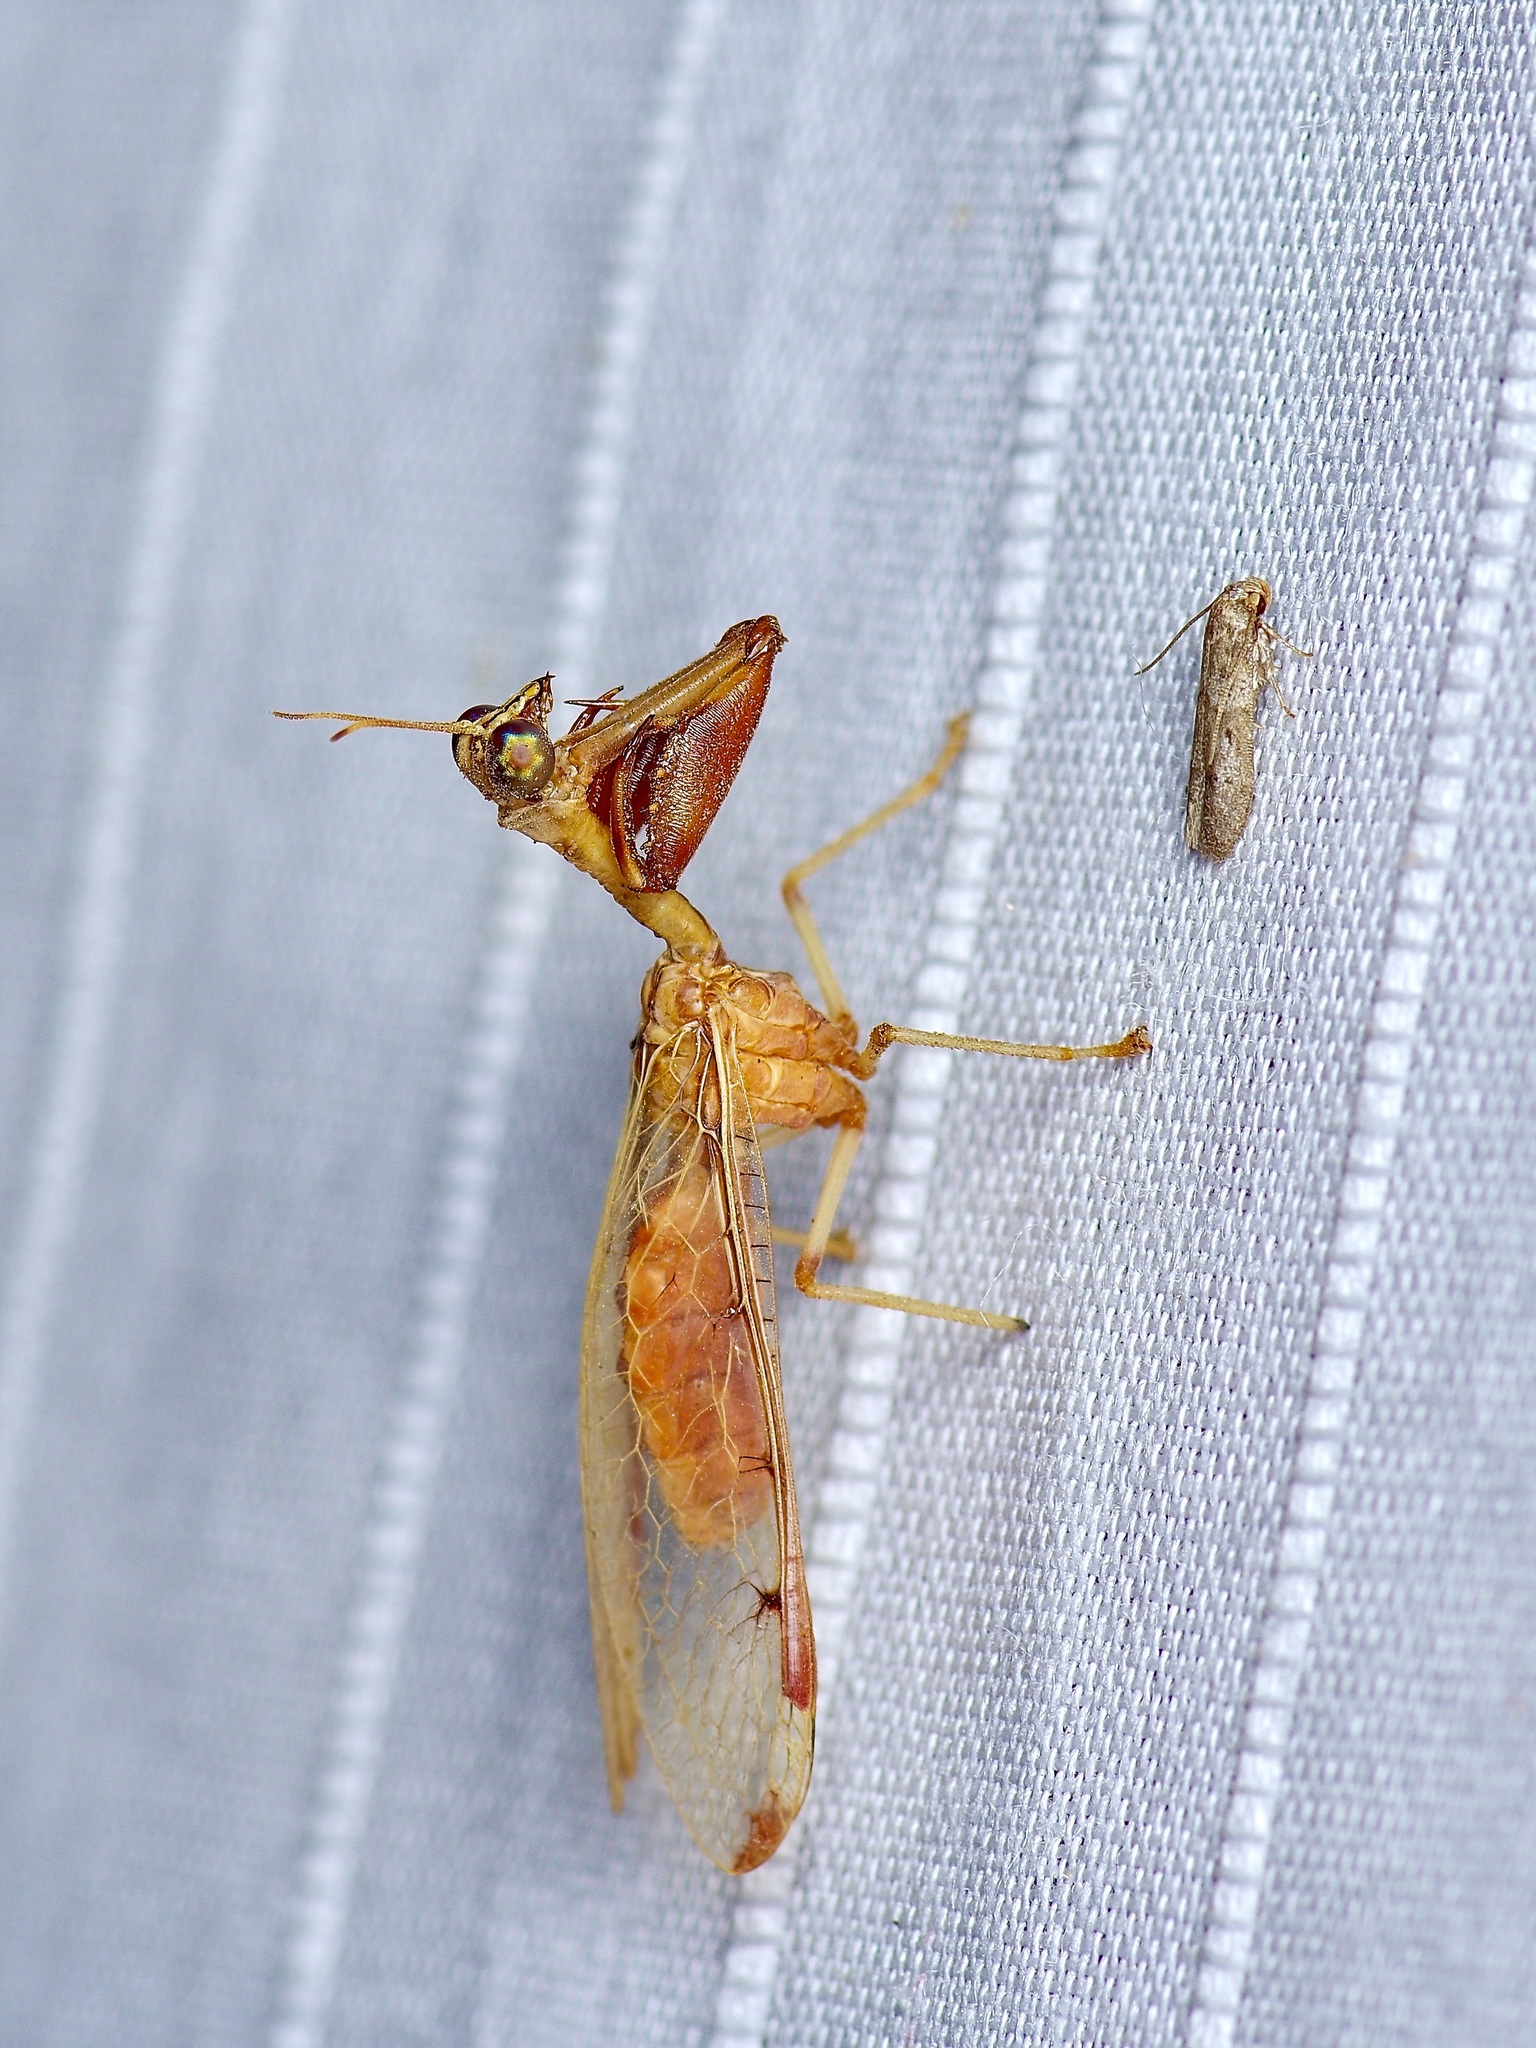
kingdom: Animalia
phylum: Arthropoda
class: Insecta
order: Neuroptera
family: Mantispidae
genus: Dicromantispa
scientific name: Dicromantispa interrupta
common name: Four-spotted mantidfly
